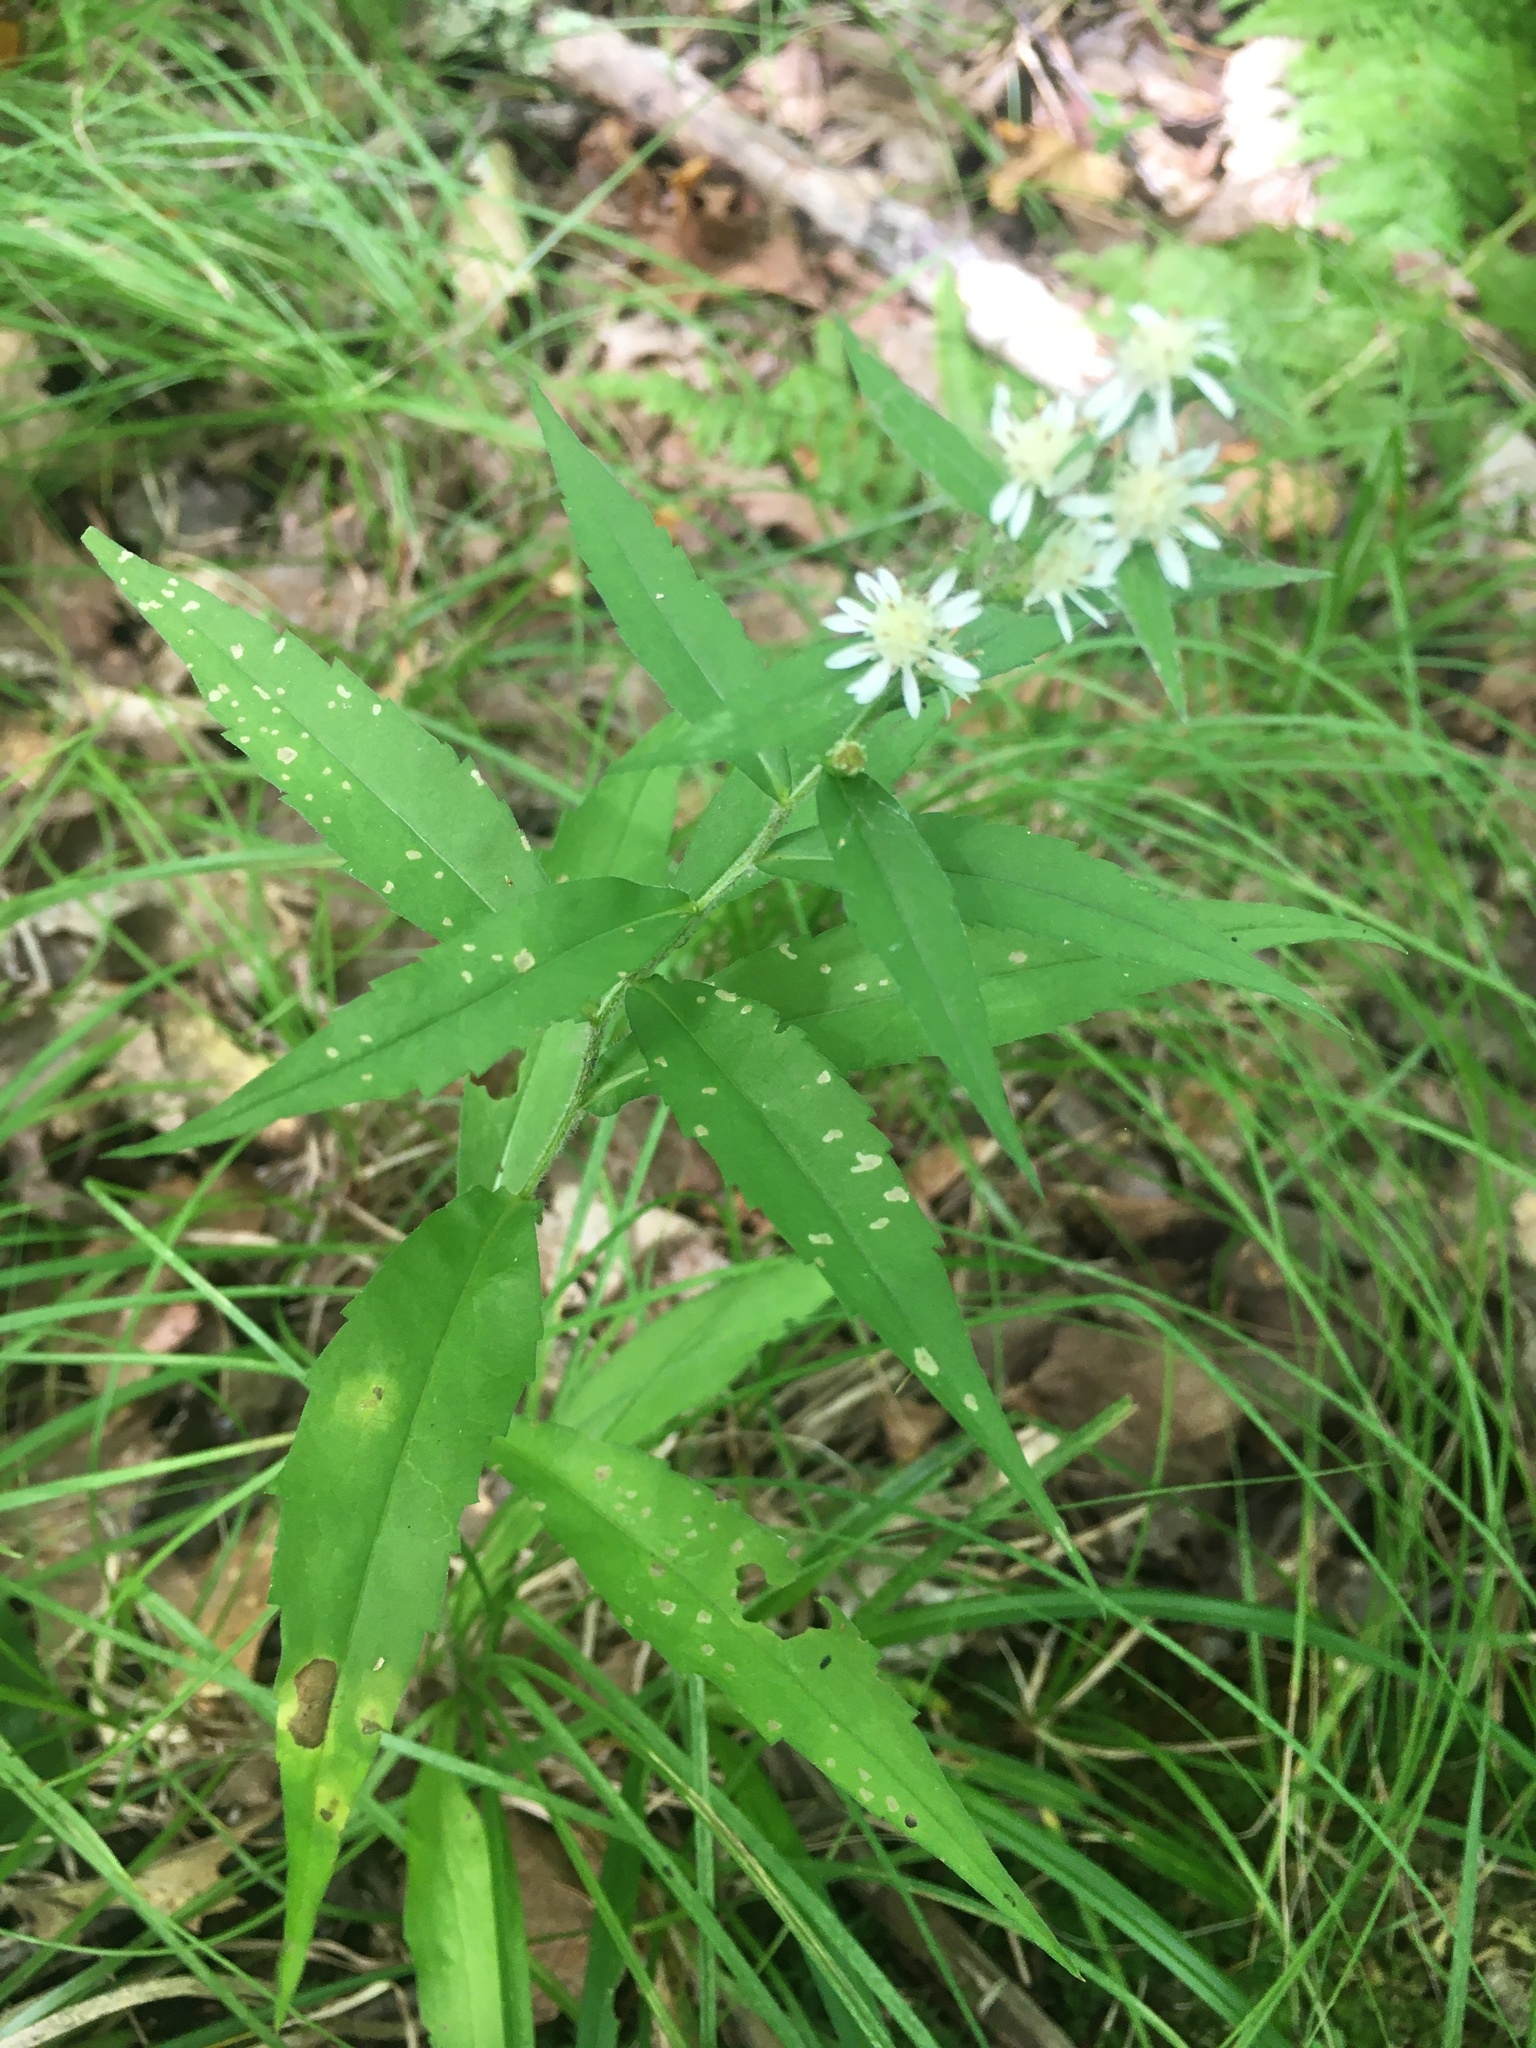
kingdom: Plantae
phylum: Tracheophyta
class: Magnoliopsida
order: Asterales
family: Asteraceae
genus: Symphyotrichum
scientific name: Symphyotrichum lateriflorum
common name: Calico aster
